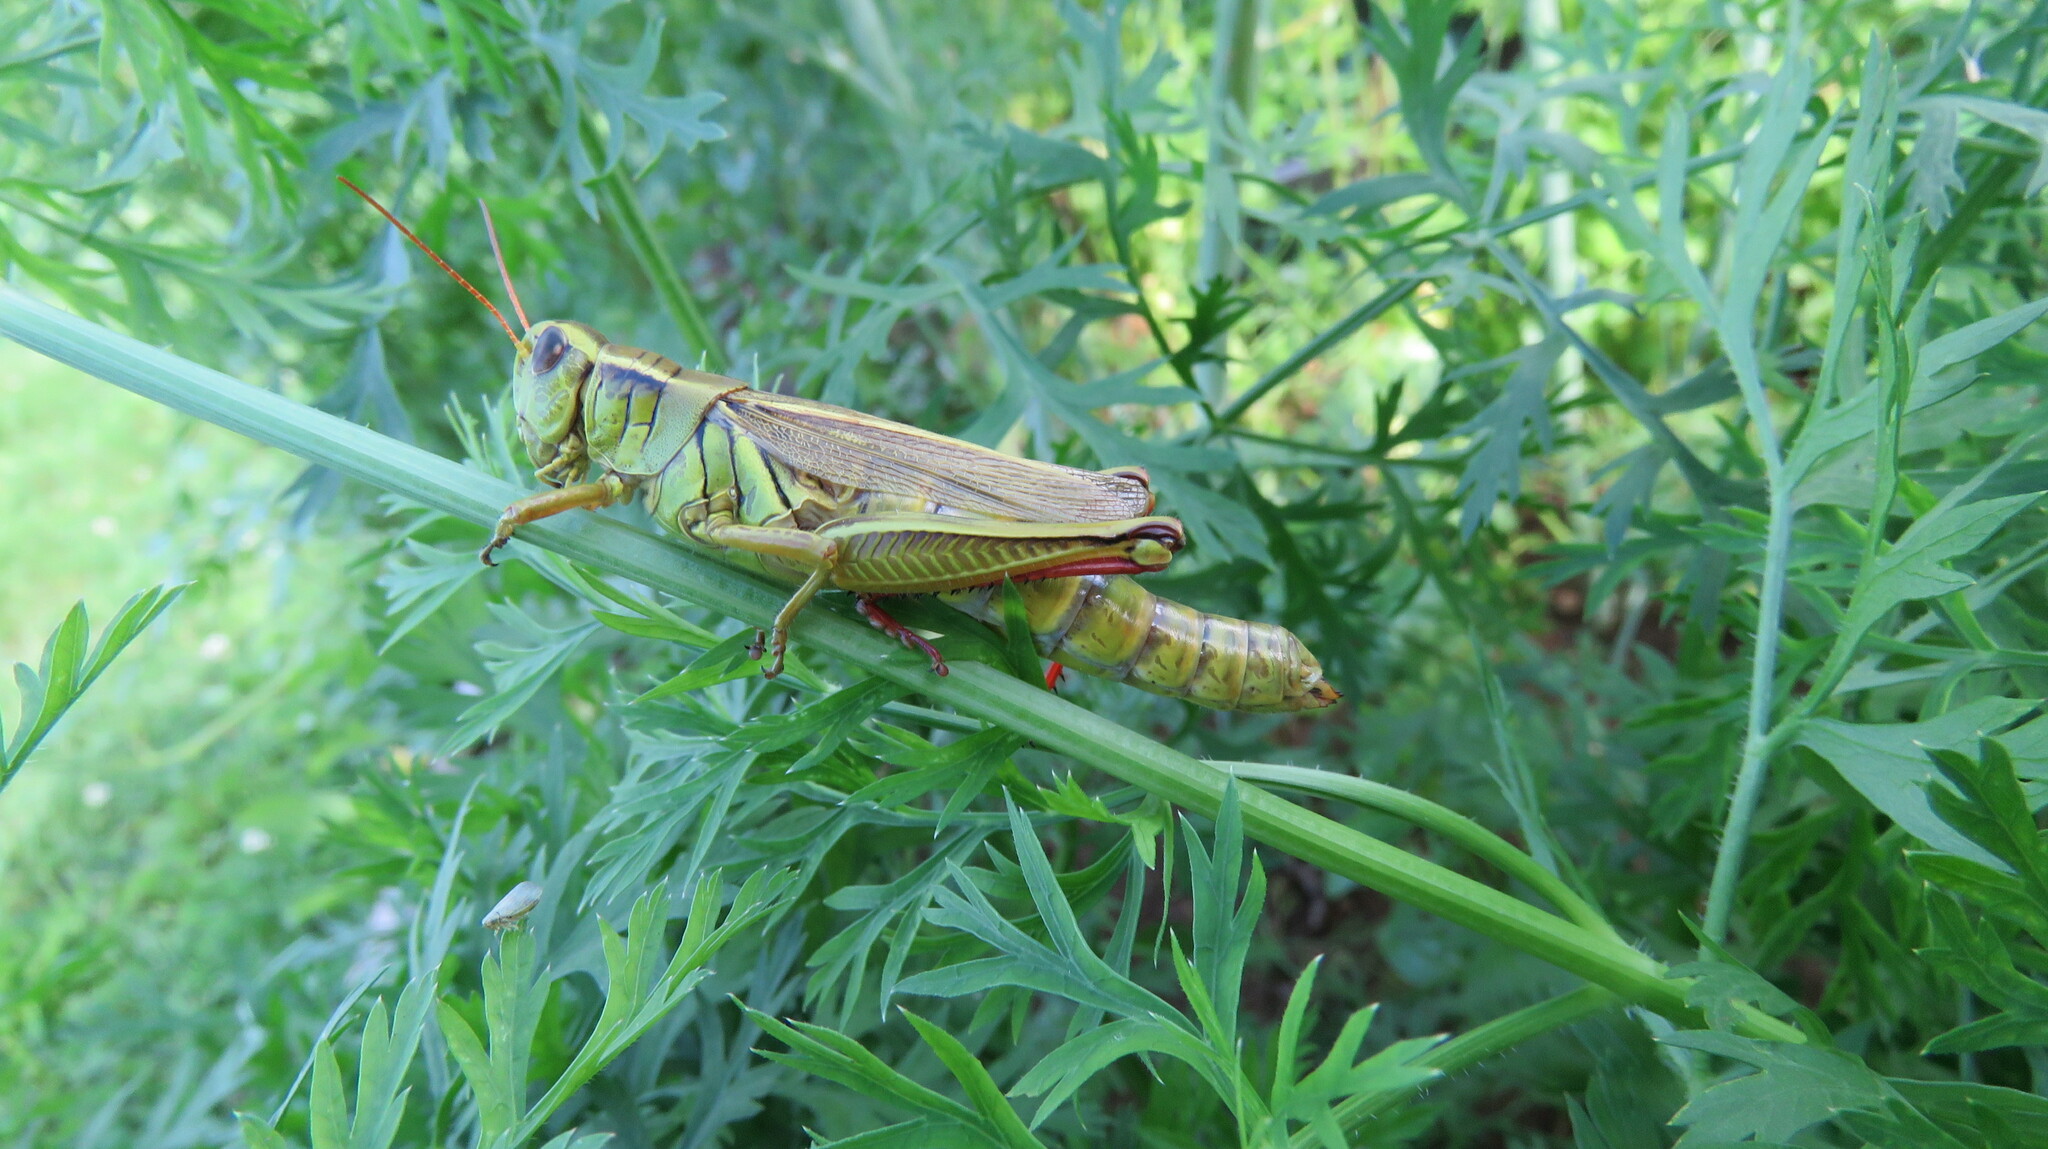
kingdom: Animalia
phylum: Arthropoda
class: Insecta
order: Orthoptera
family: Acrididae
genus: Melanoplus
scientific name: Melanoplus bivittatus
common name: Two-striped grasshopper
